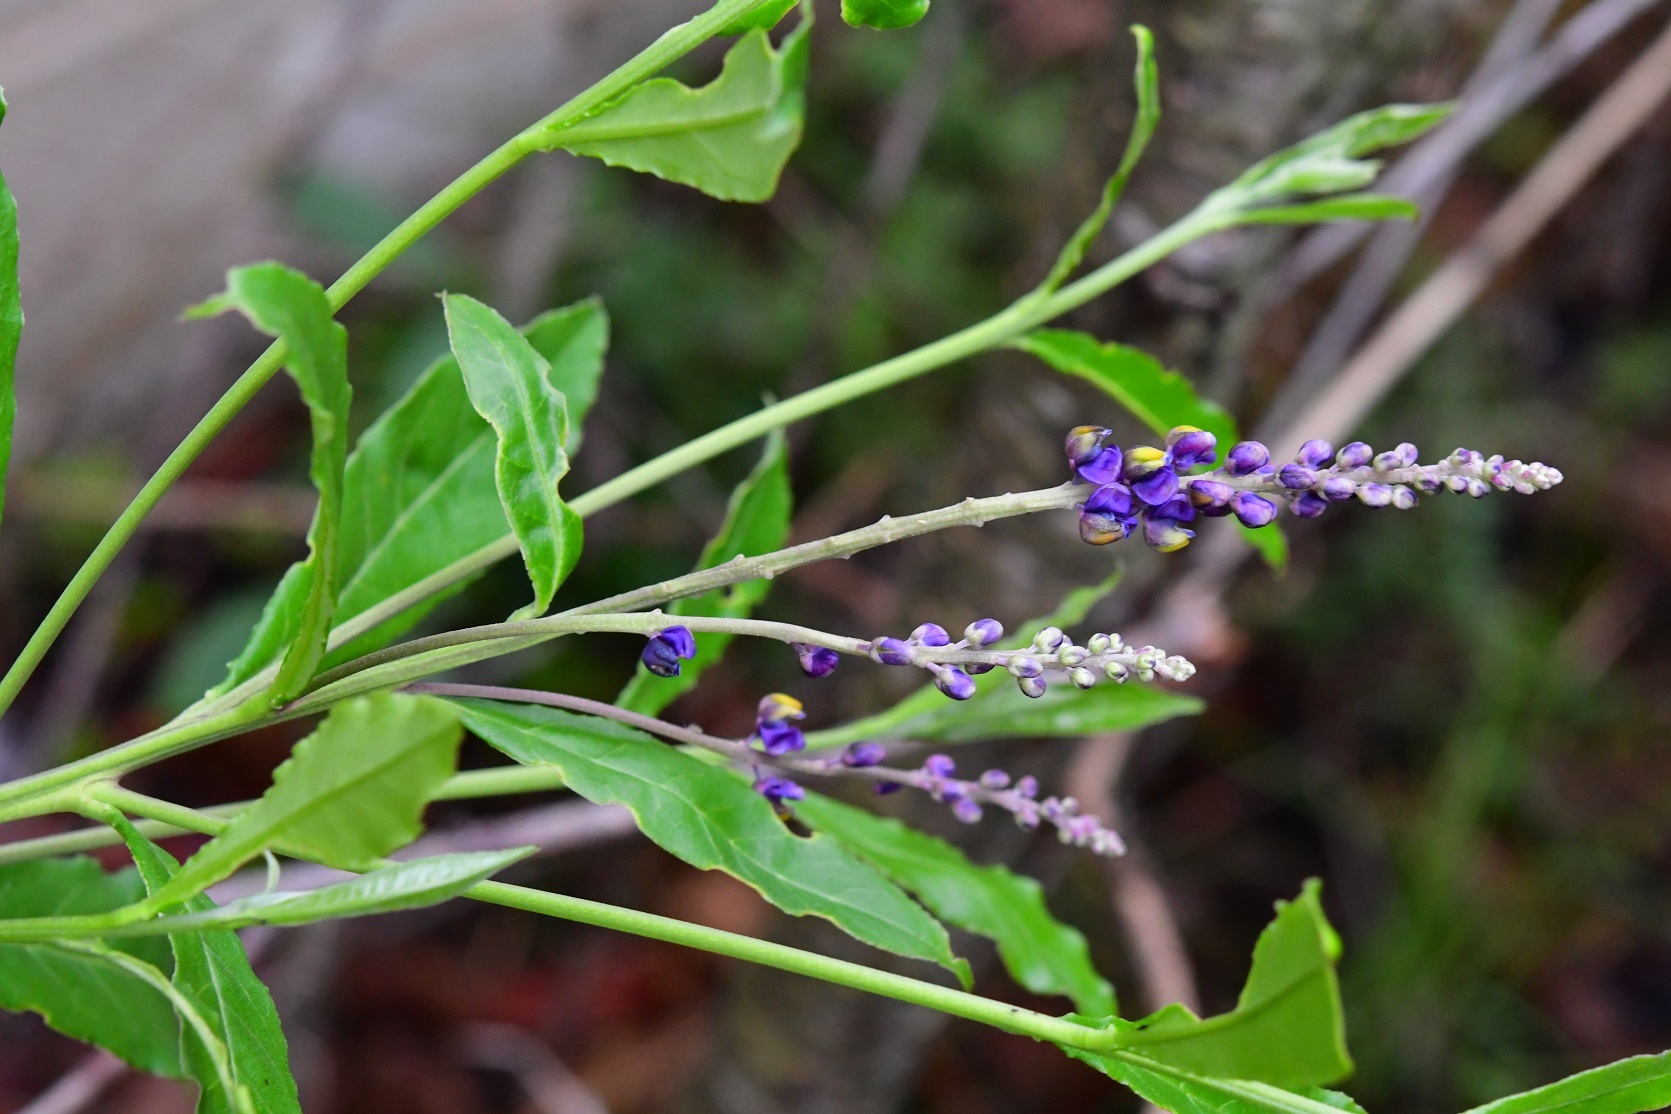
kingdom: Plantae
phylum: Tracheophyta
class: Magnoliopsida
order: Fabales
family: Polygalaceae
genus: Monnina
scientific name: Monnina xalapensis
